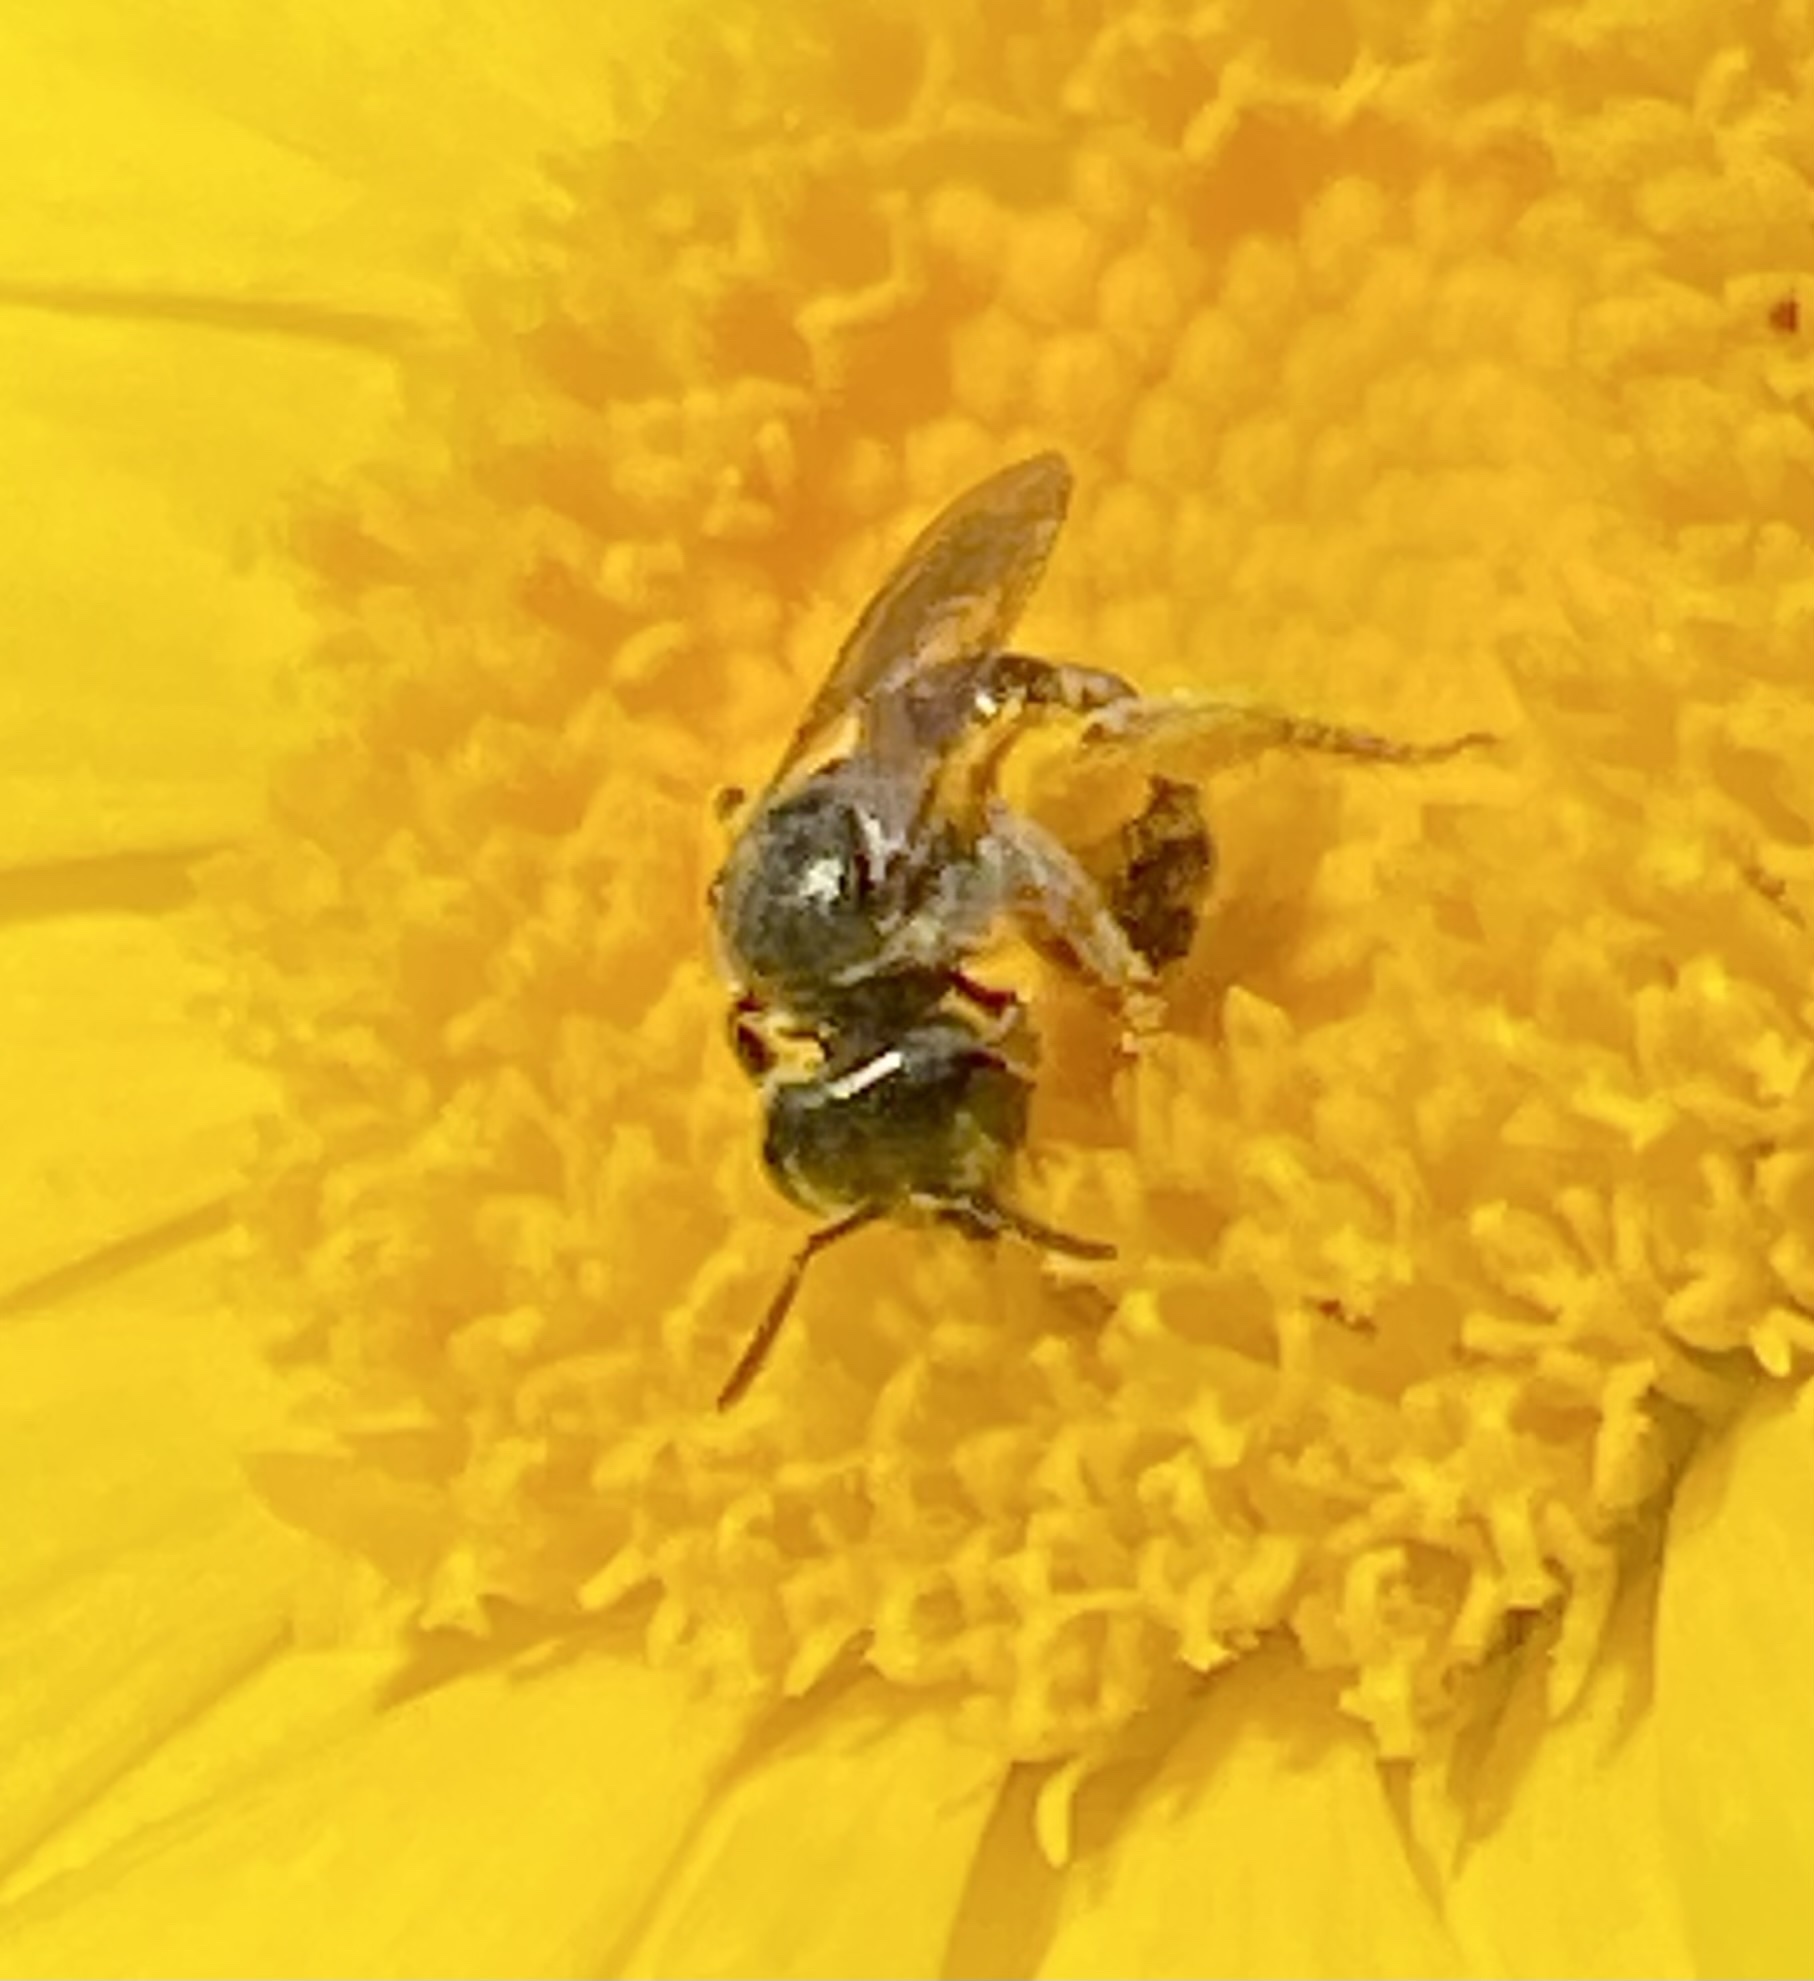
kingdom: Animalia
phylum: Arthropoda
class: Insecta
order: Hymenoptera
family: Halictidae
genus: Halictus
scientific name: Halictus tripartitus
